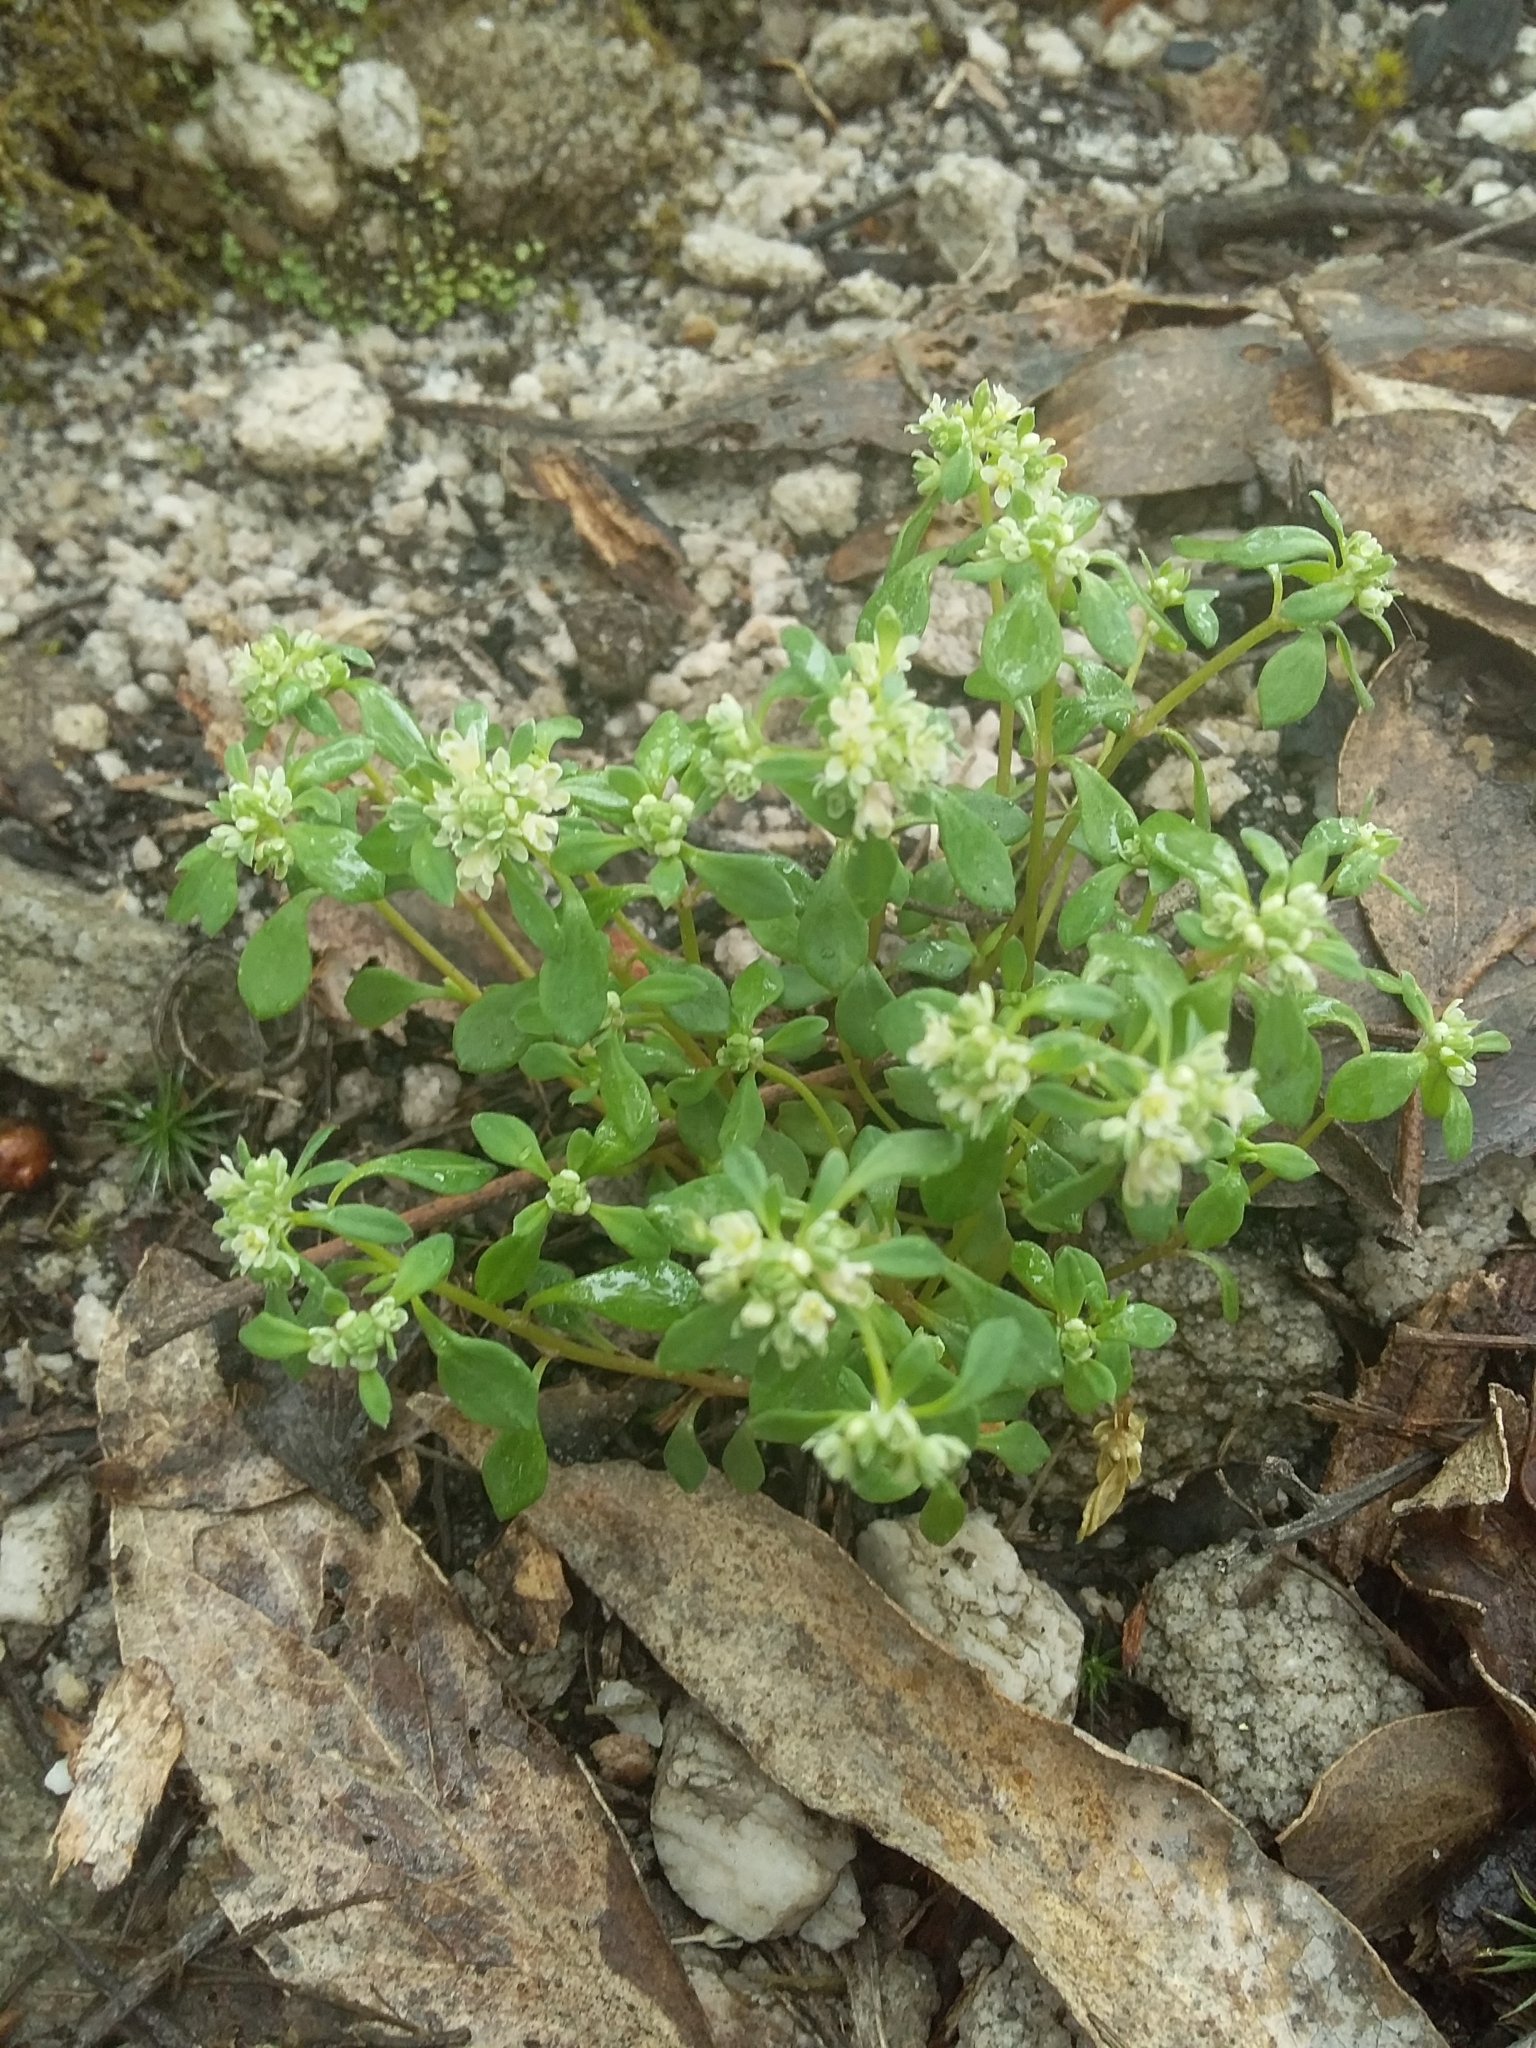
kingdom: Plantae
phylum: Tracheophyta
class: Magnoliopsida
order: Malpighiales
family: Phyllanthaceae
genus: Poranthera
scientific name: Poranthera microphylla
